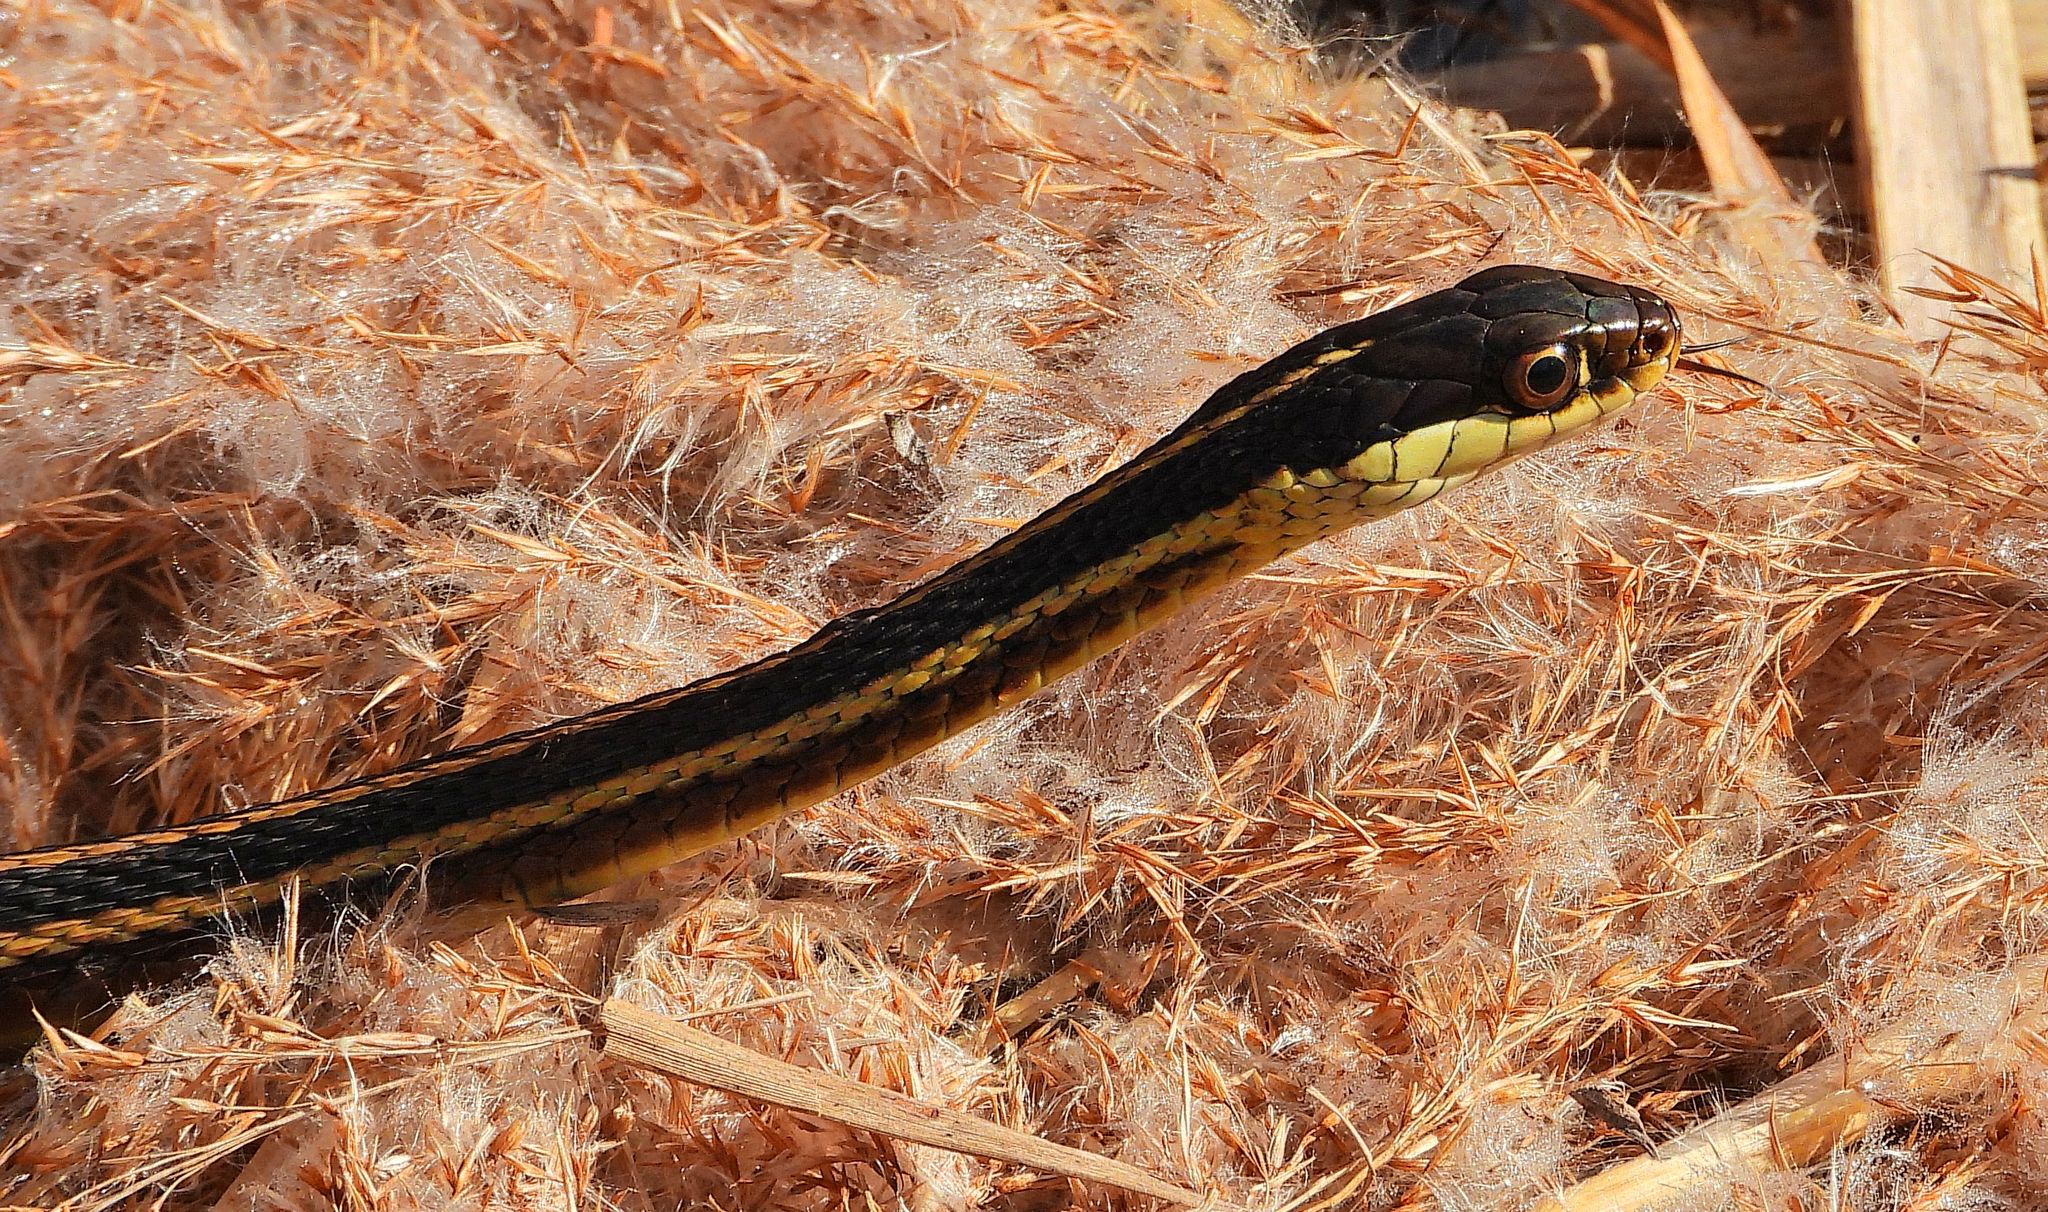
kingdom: Animalia
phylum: Chordata
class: Squamata
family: Colubridae
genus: Thamnophis
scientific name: Thamnophis saurita
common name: Eastern ribbonsnake
